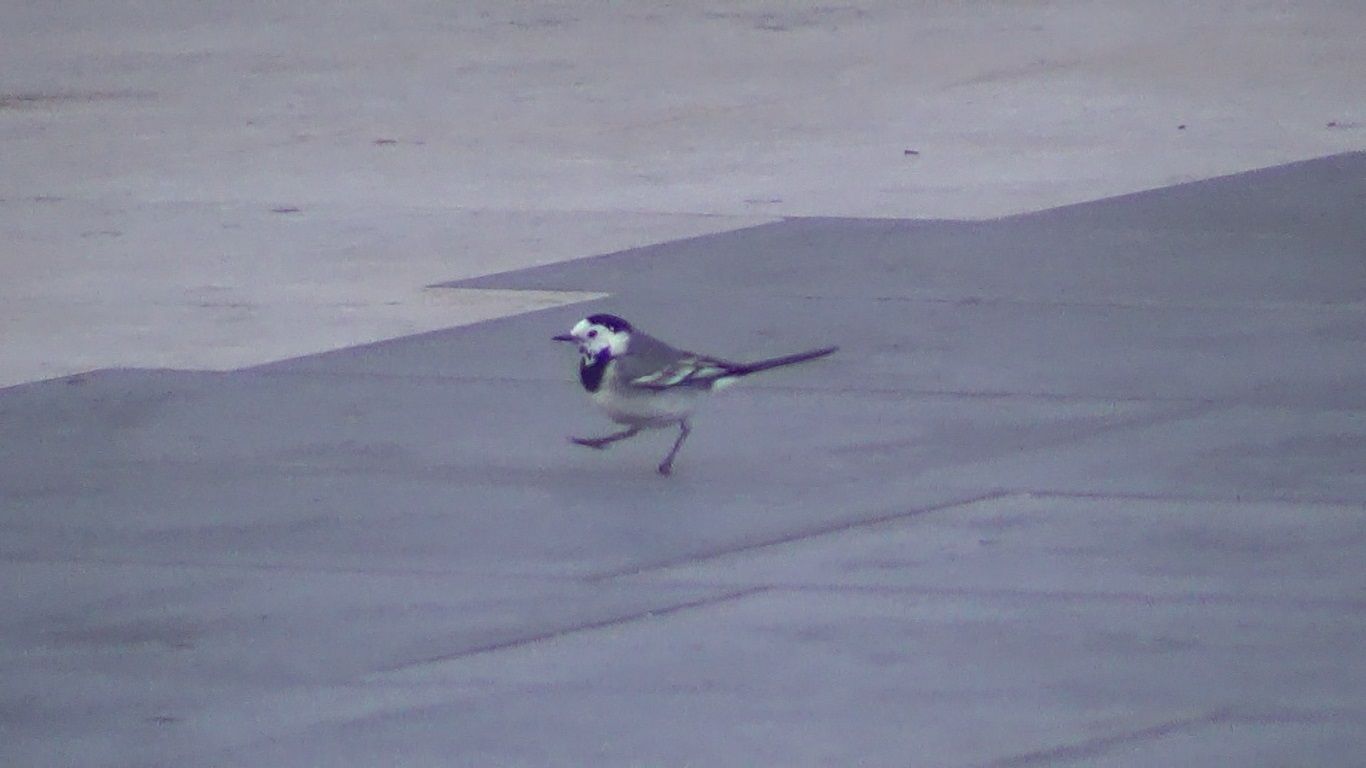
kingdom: Animalia
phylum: Chordata
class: Aves
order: Passeriformes
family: Motacillidae
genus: Motacilla
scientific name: Motacilla alba
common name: White wagtail
